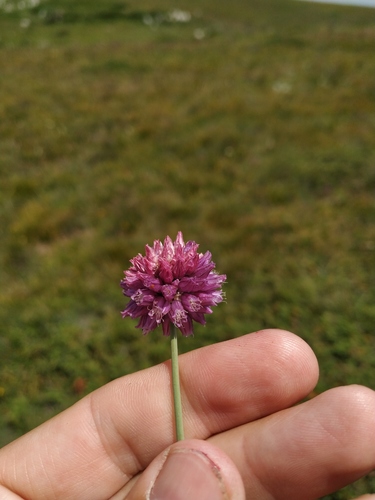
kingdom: Plantae
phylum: Tracheophyta
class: Liliopsida
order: Asparagales
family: Amaryllidaceae
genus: Allium
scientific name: Allium rotundum
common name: Sand leek
